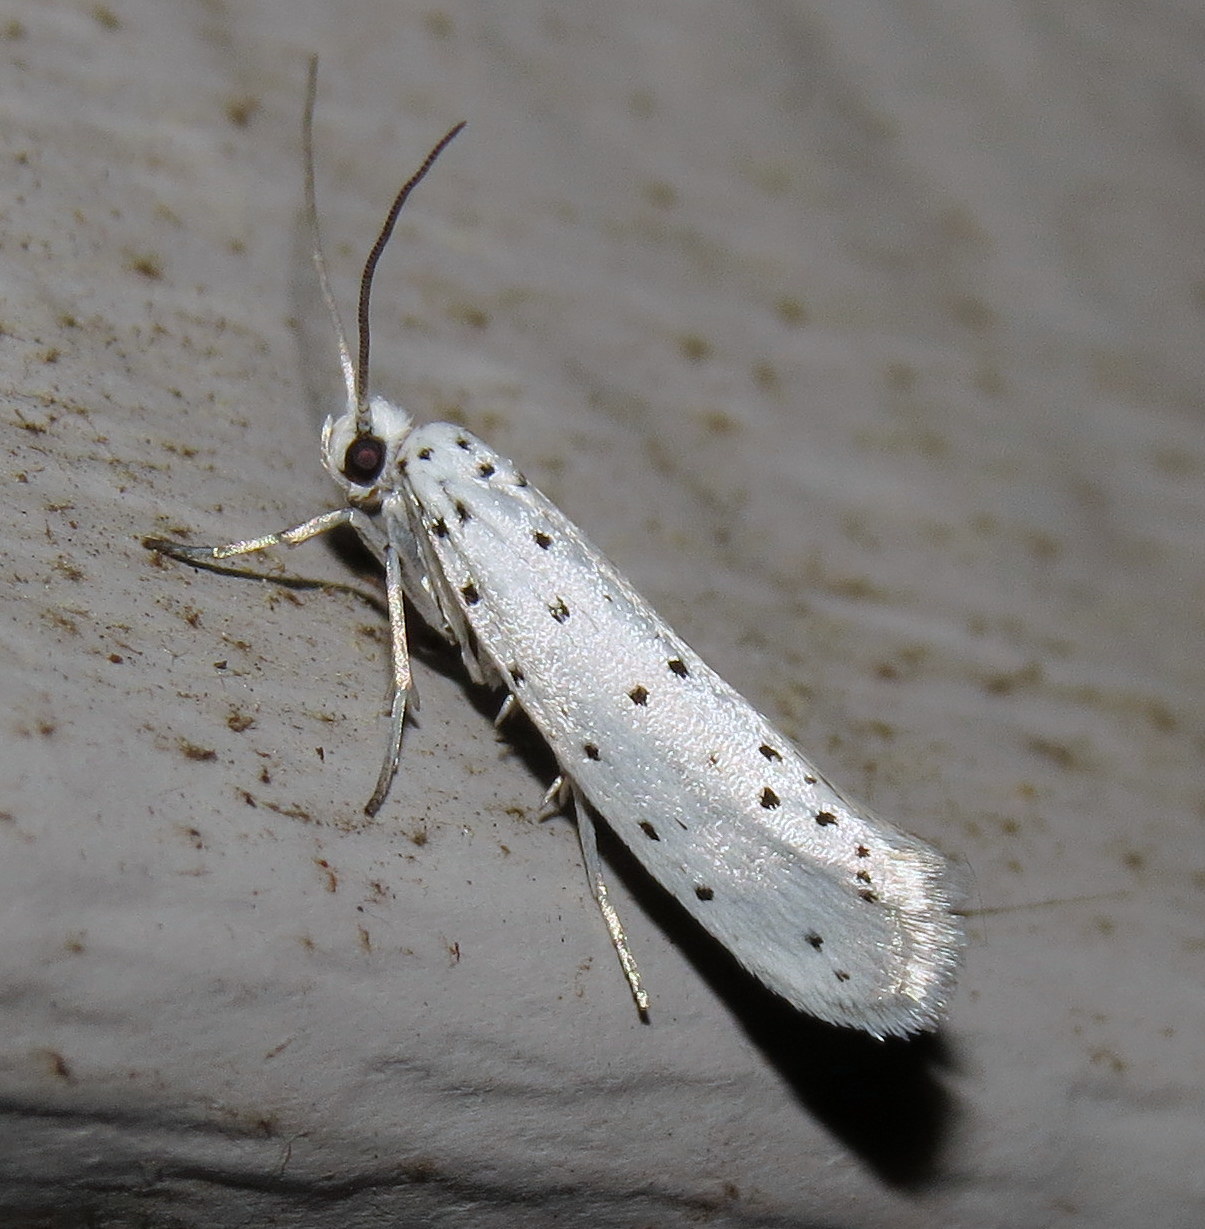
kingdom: Animalia
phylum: Arthropoda
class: Insecta
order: Lepidoptera
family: Yponomeutidae
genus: Yponomeuta
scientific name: Yponomeuta cagnagellus
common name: Spindle ermine
